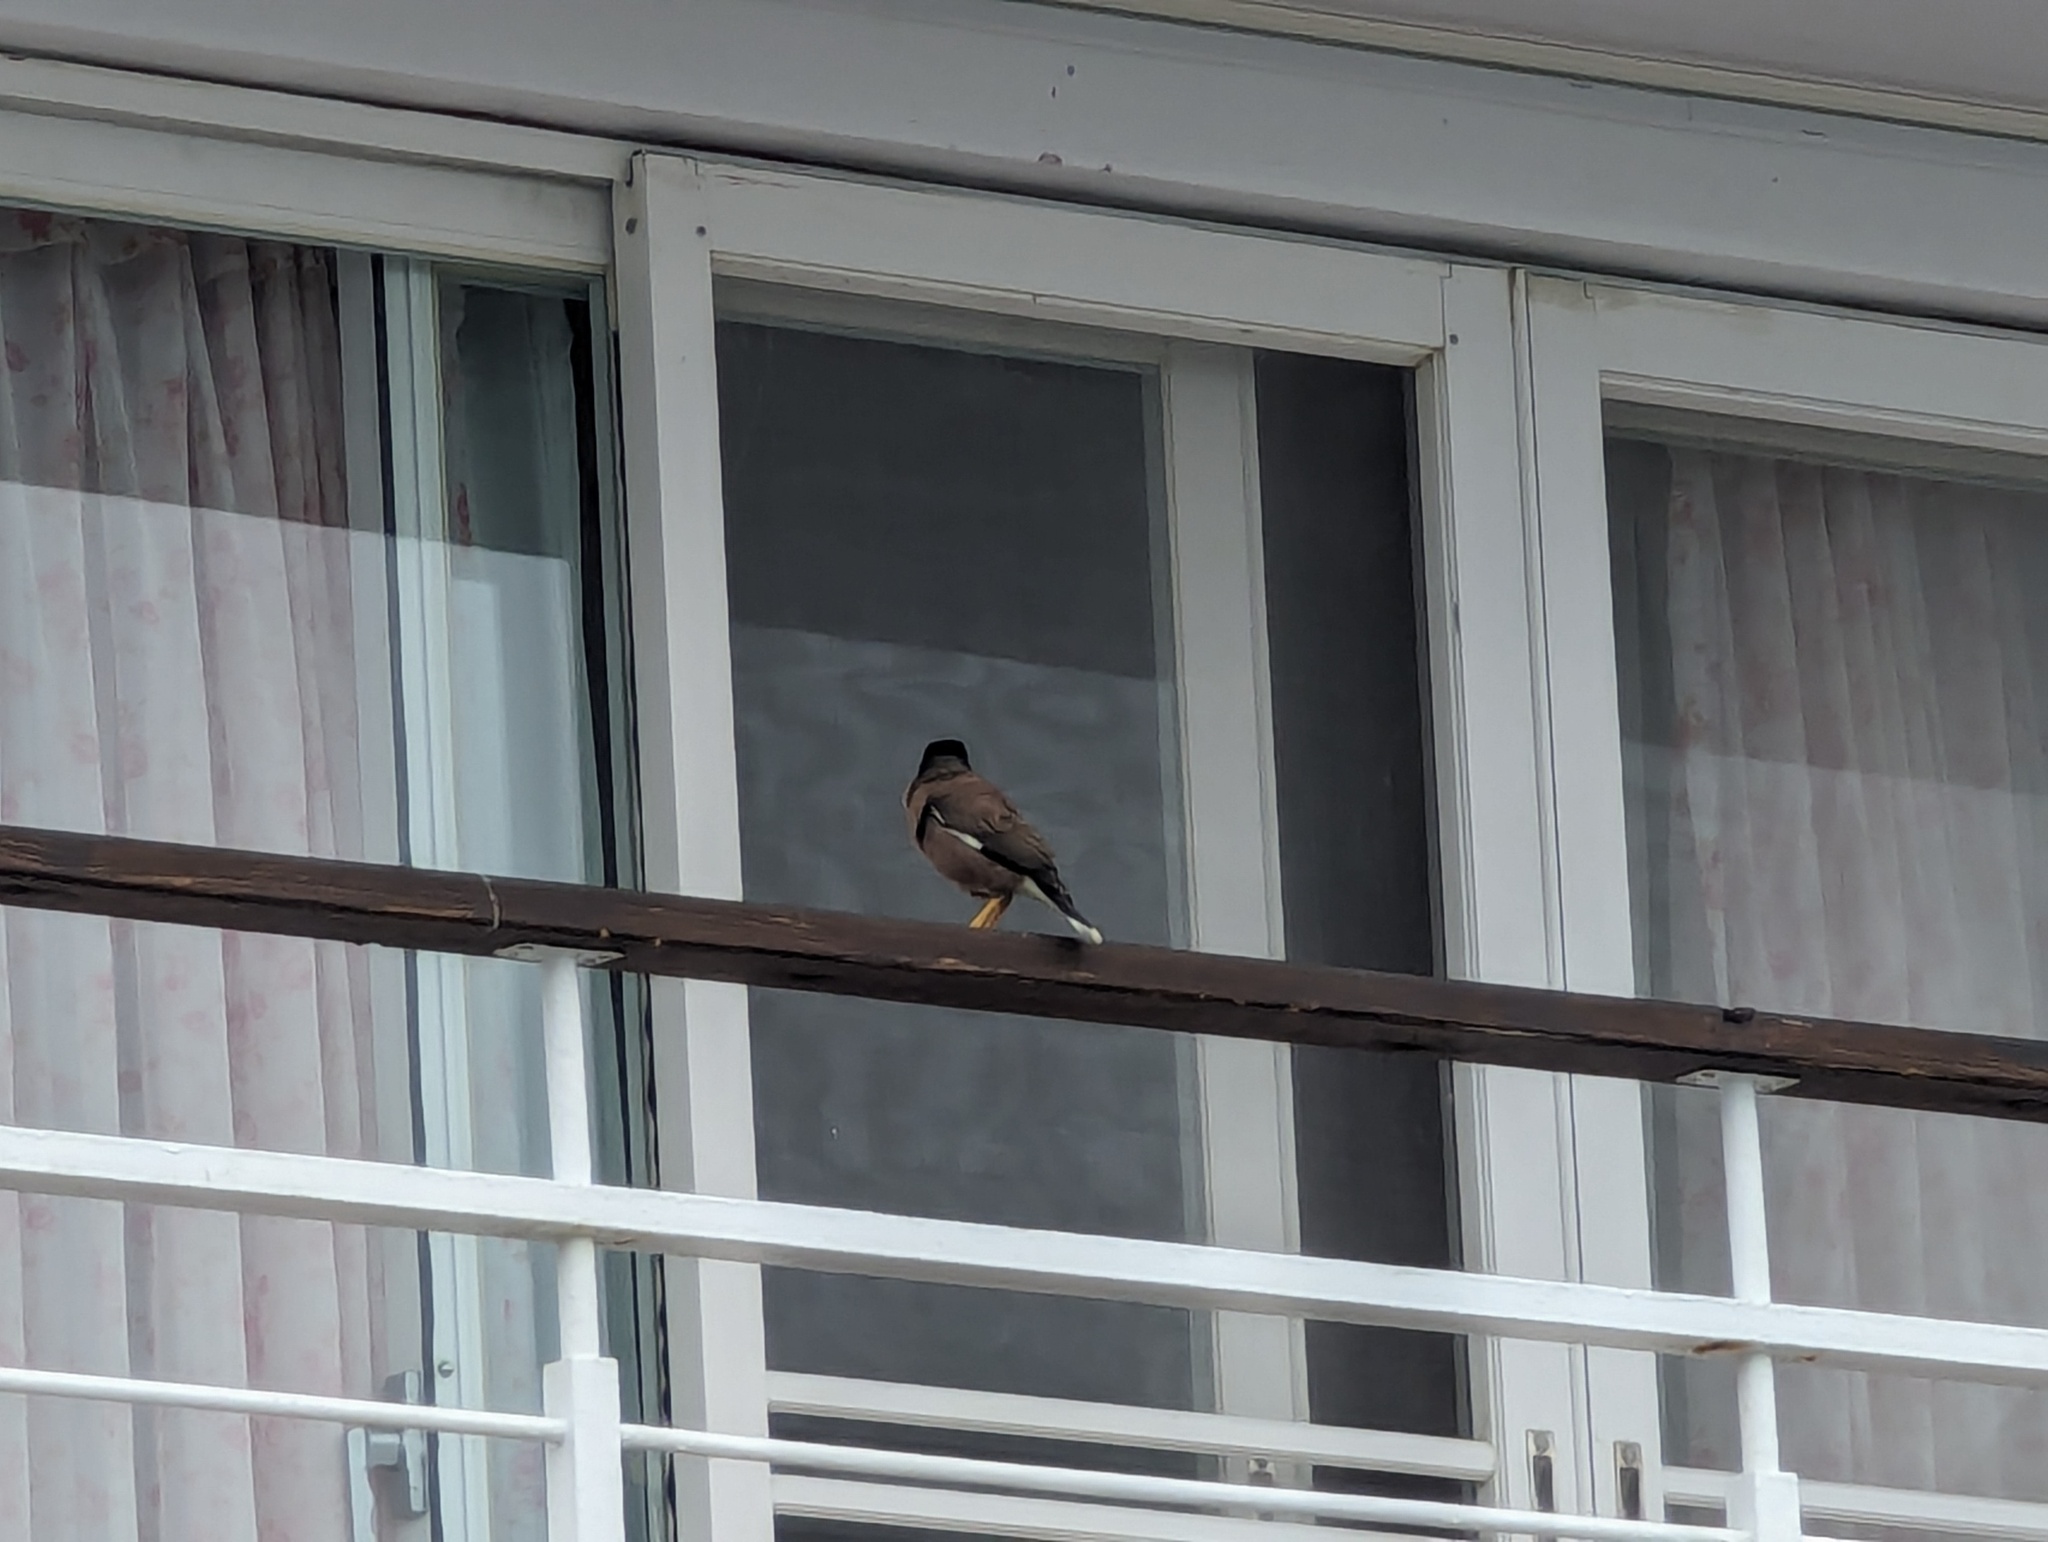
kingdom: Animalia
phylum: Chordata
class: Aves
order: Passeriformes
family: Sturnidae
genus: Acridotheres
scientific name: Acridotheres tristis
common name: Common myna
